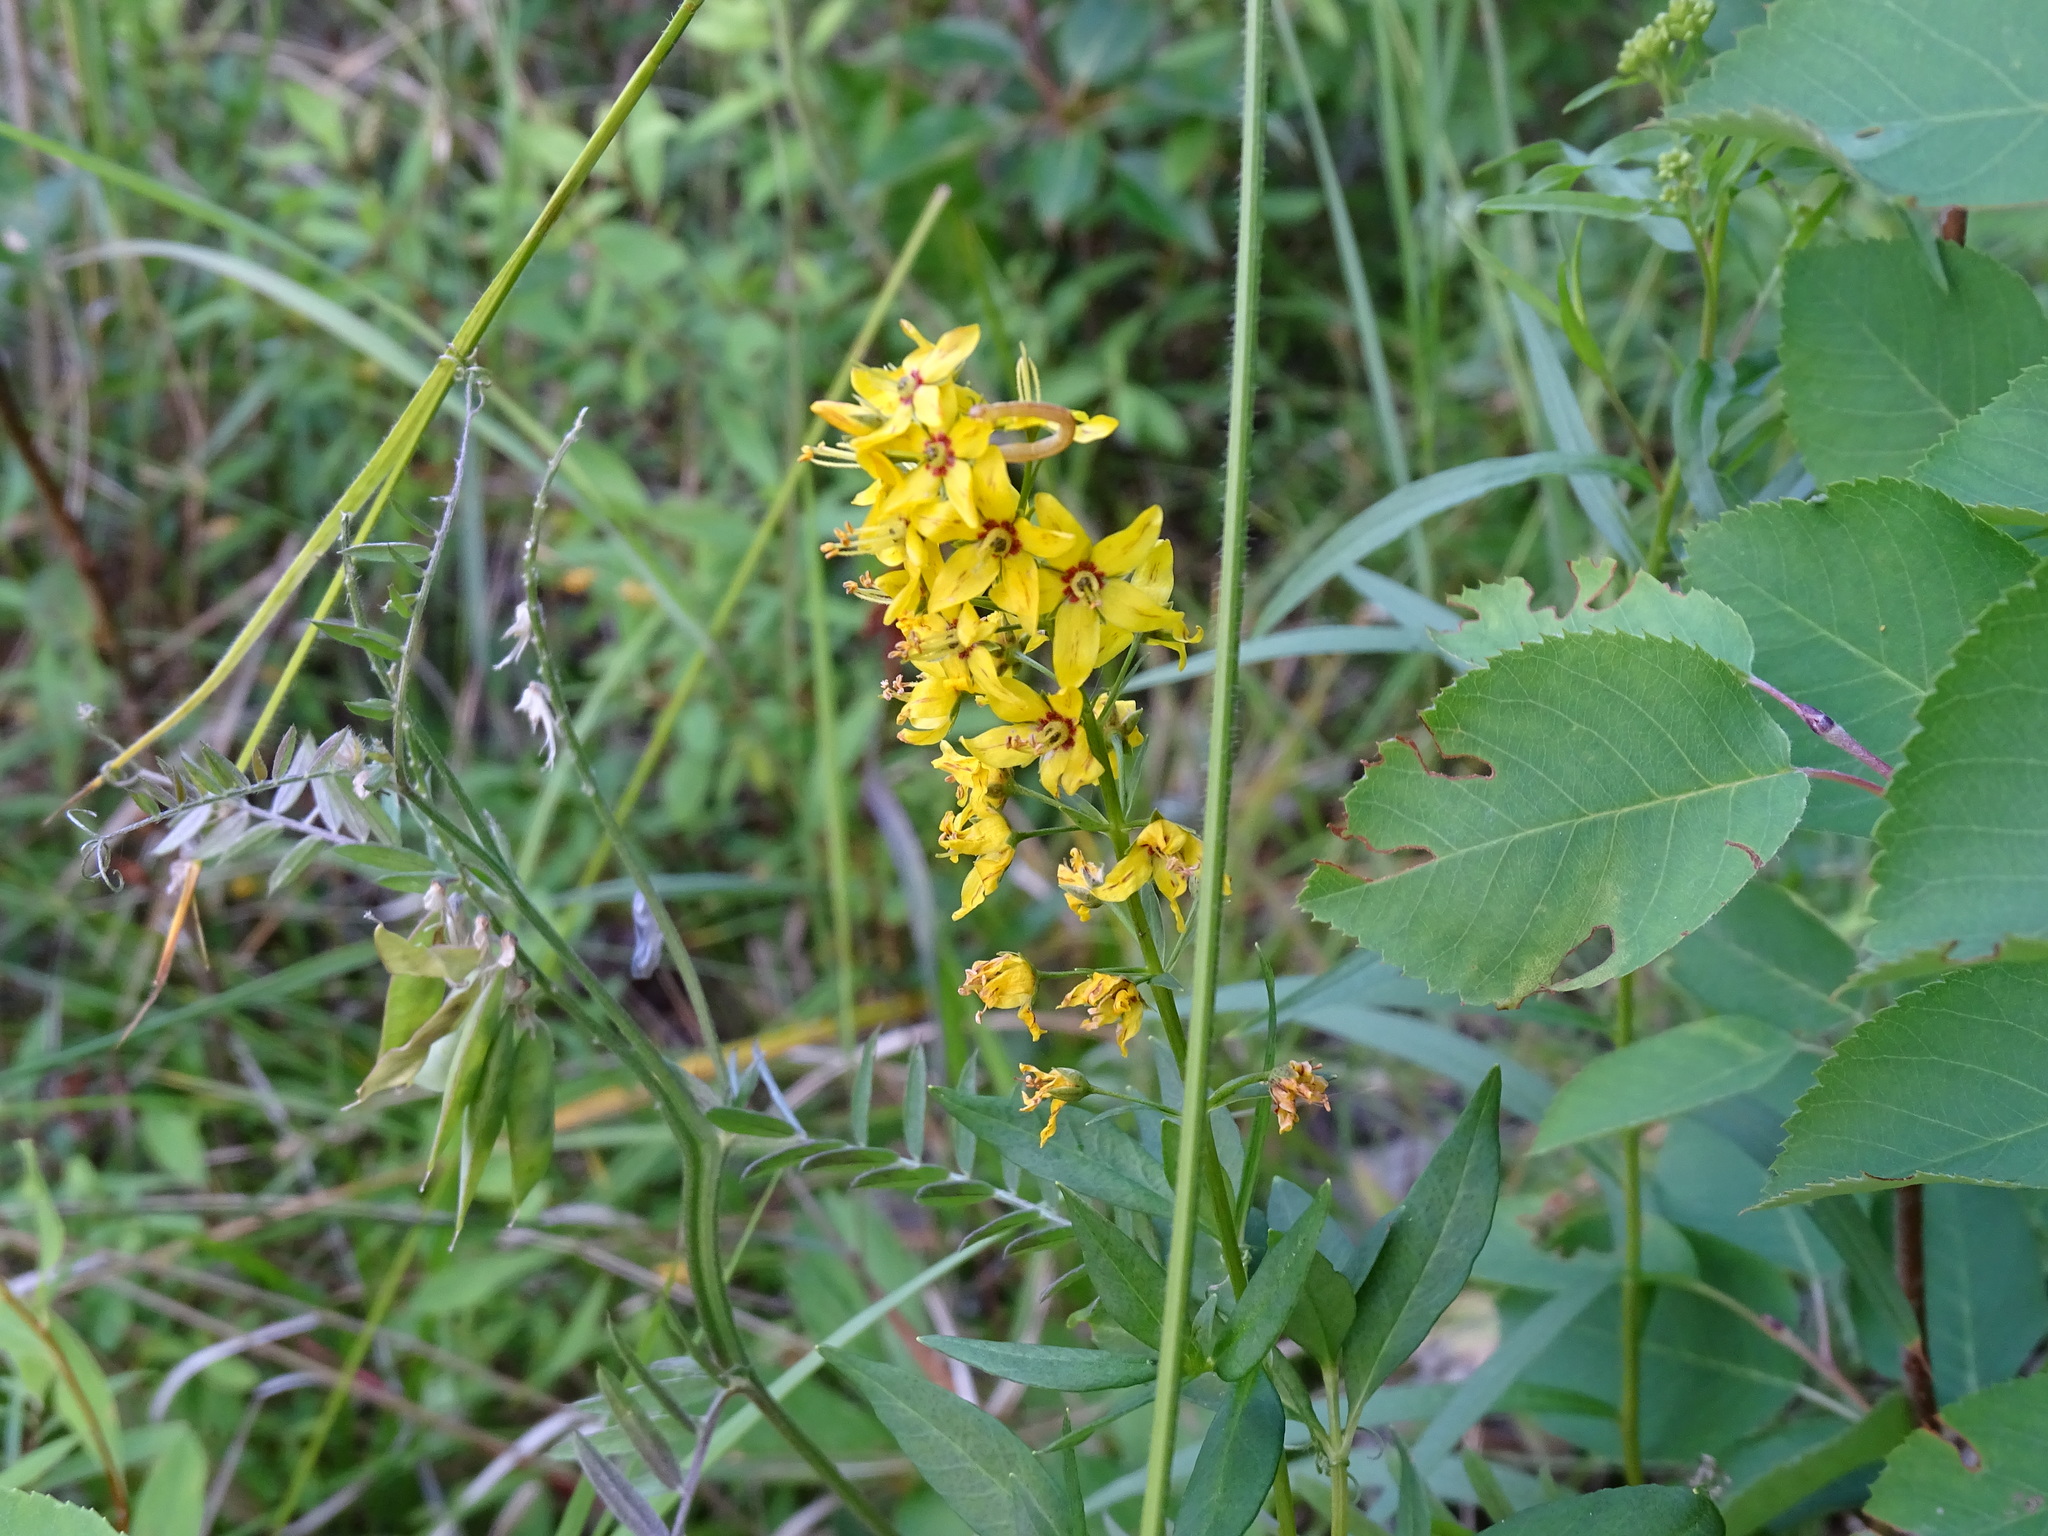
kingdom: Plantae
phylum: Tracheophyta
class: Magnoliopsida
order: Ericales
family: Primulaceae
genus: Lysimachia
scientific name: Lysimachia terrestris
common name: Lake loosestrife
